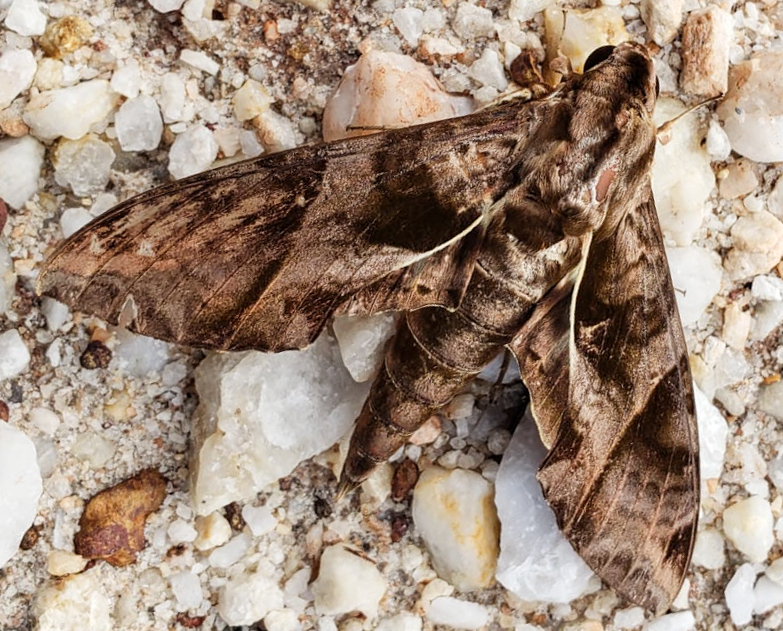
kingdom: Animalia
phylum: Arthropoda
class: Insecta
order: Lepidoptera
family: Sphingidae
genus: Eumorpha
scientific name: Eumorpha anchemolus
